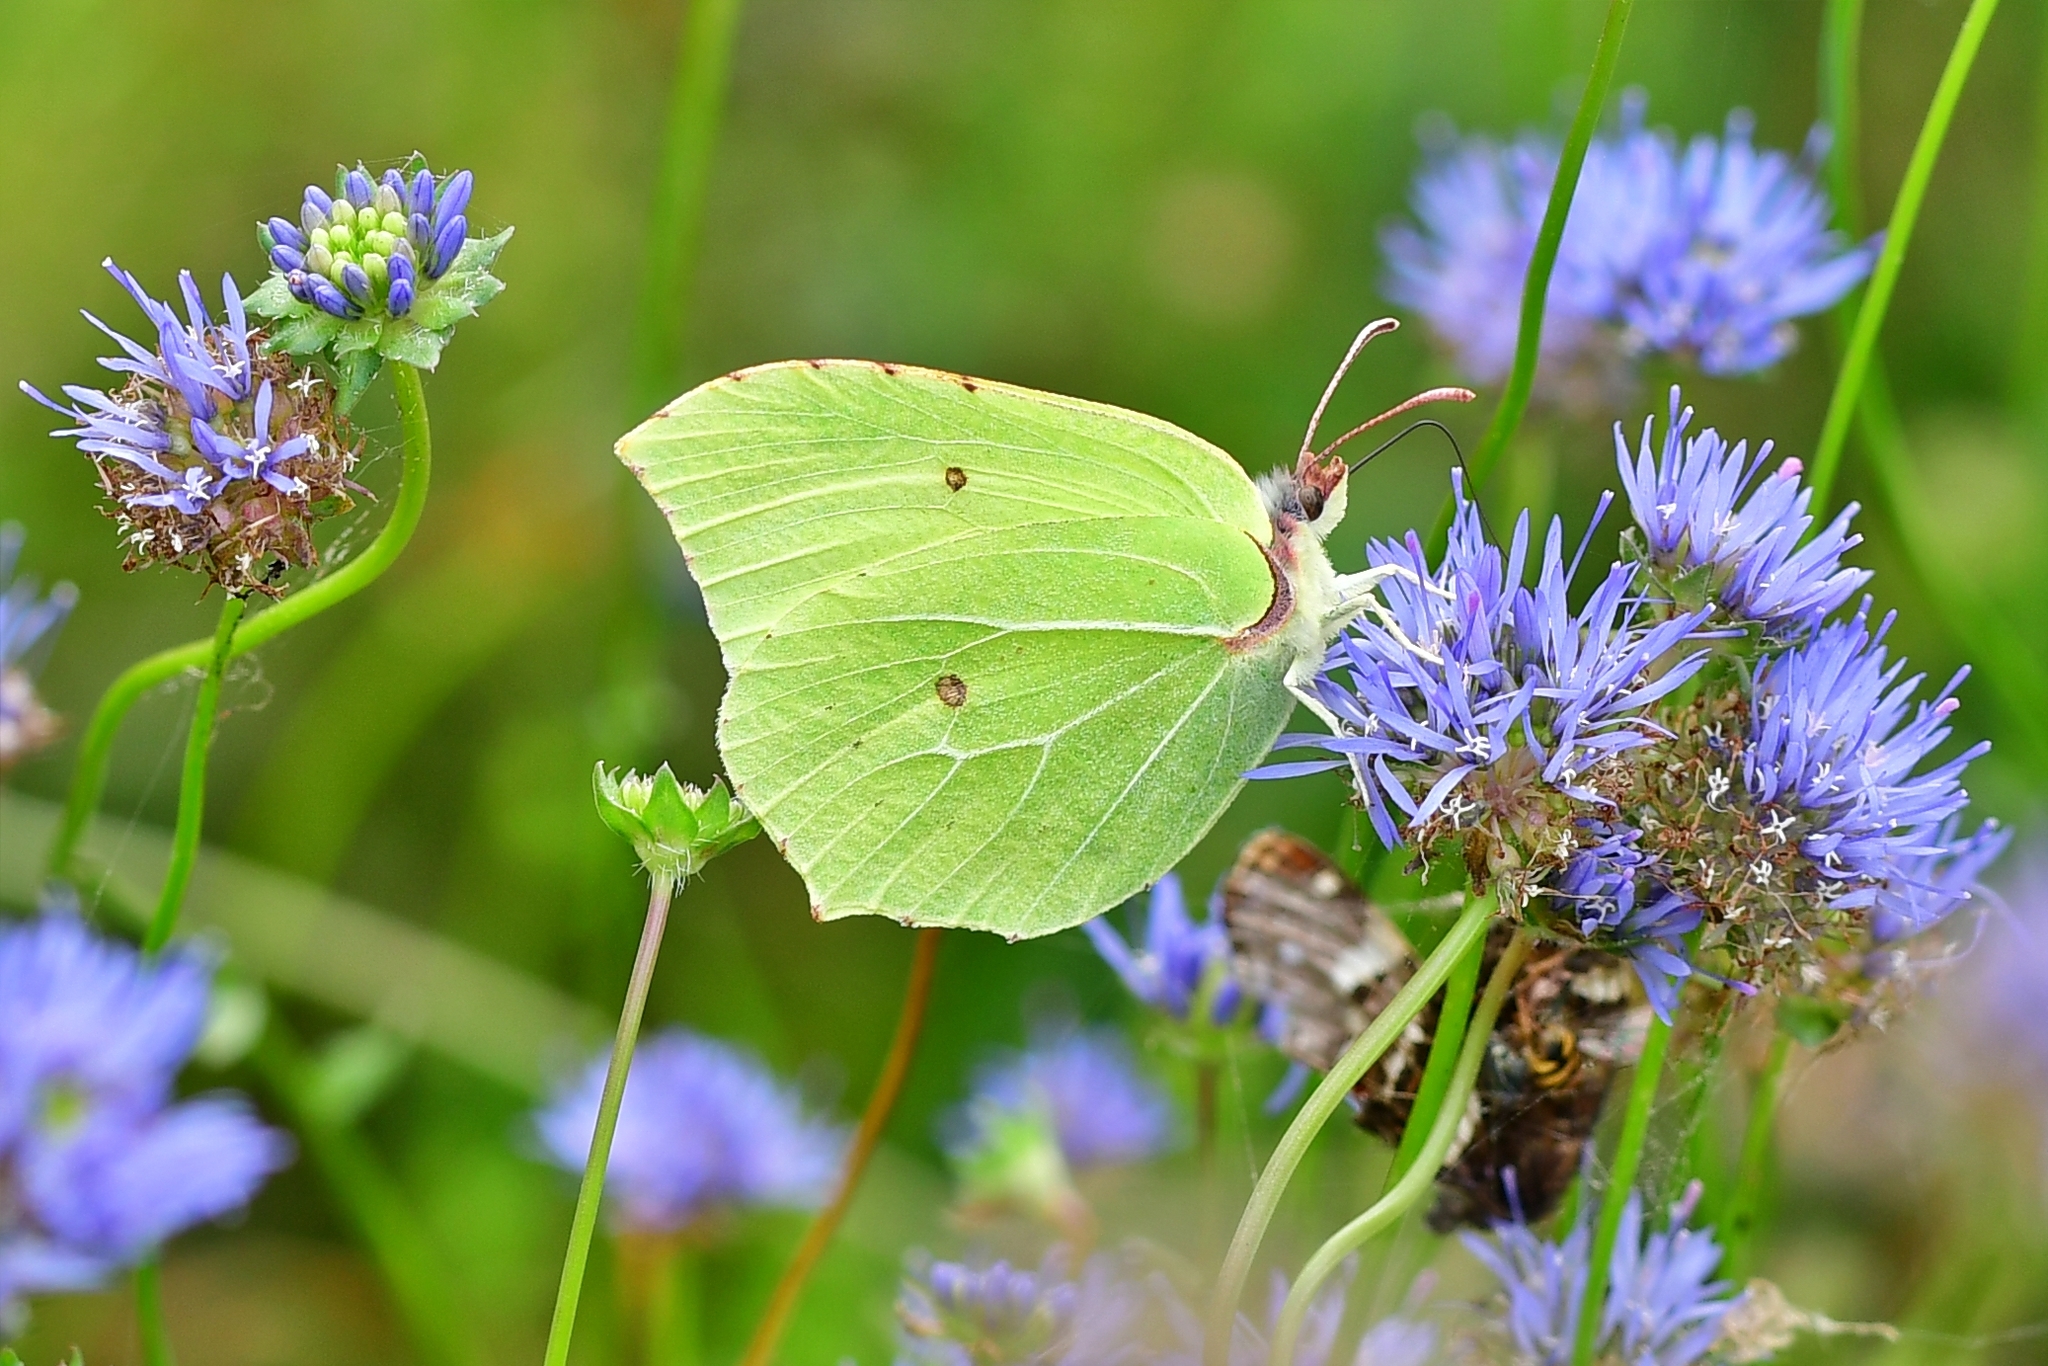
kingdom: Animalia
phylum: Arthropoda
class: Insecta
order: Lepidoptera
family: Pieridae
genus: Gonepteryx
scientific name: Gonepteryx rhamni
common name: Brimstone
